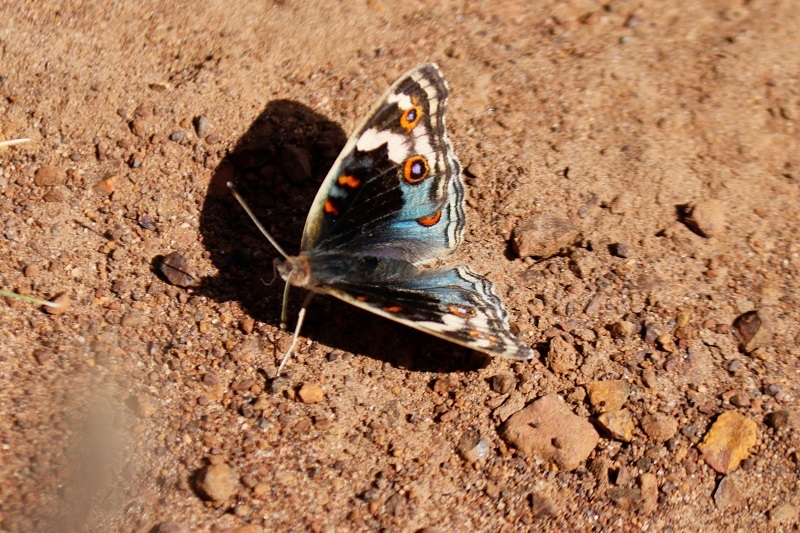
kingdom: Animalia
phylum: Arthropoda
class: Insecta
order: Lepidoptera
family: Nymphalidae
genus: Junonia
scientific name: Junonia orithya
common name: Blue pansy
